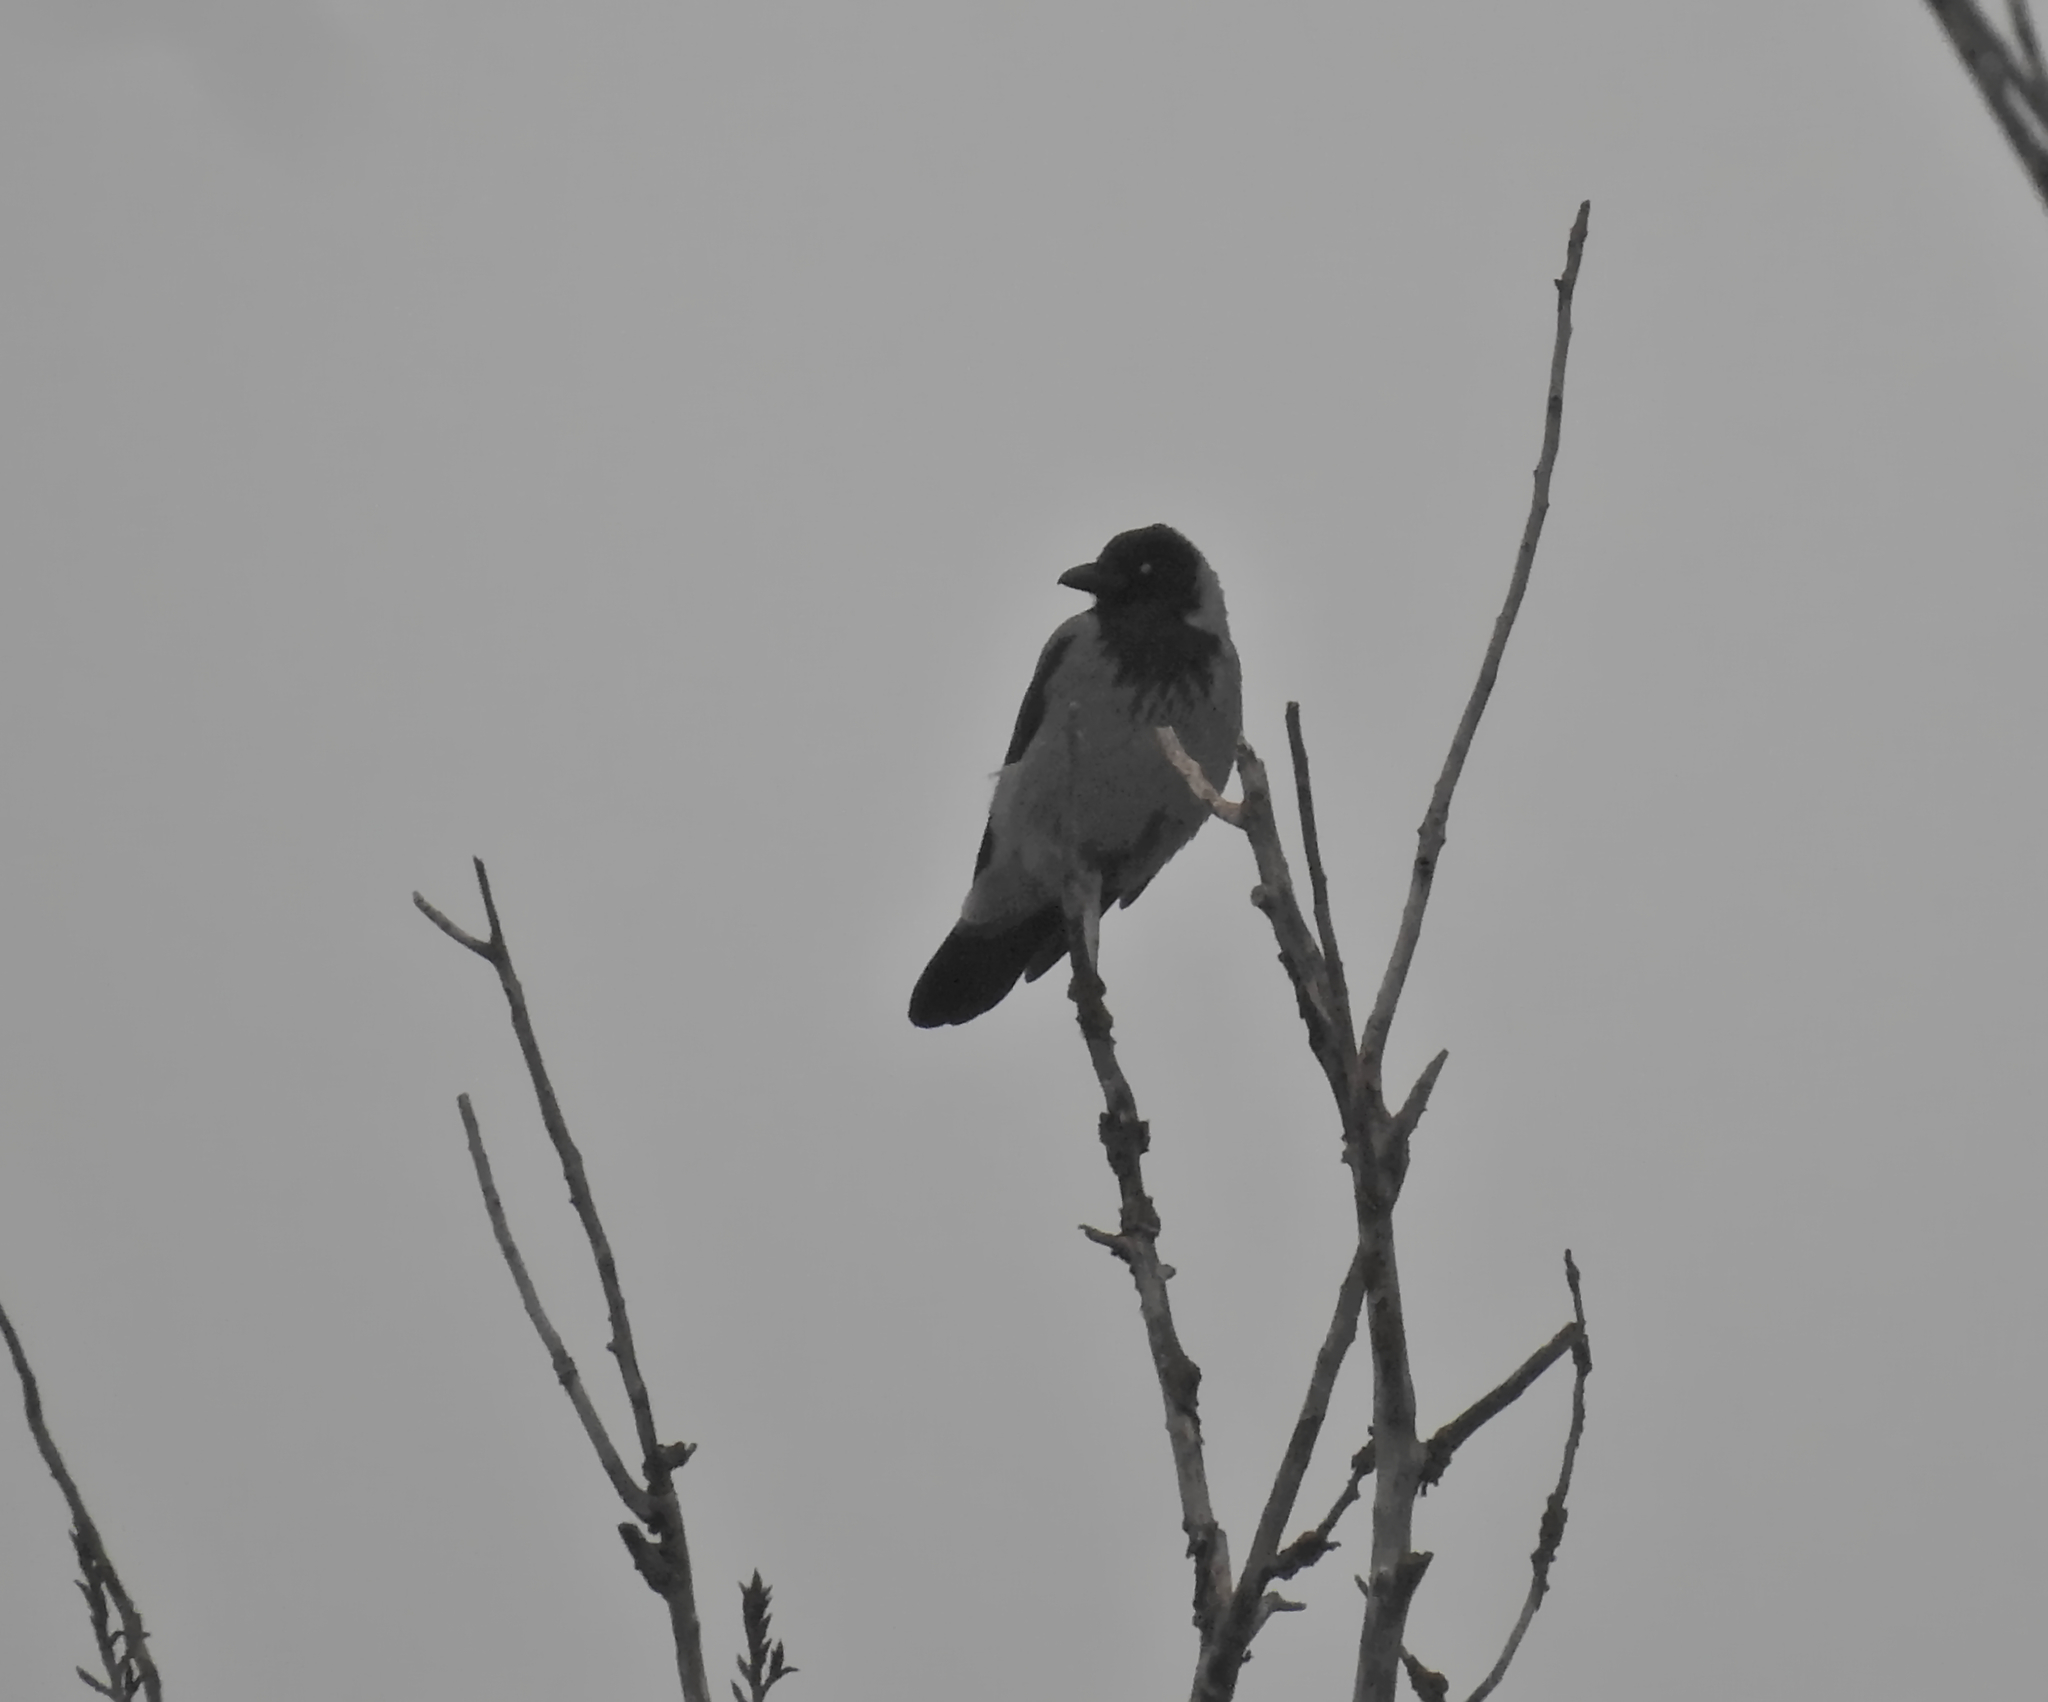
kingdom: Animalia
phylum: Chordata
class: Aves
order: Passeriformes
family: Corvidae
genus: Corvus
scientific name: Corvus cornix
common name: Hooded crow
